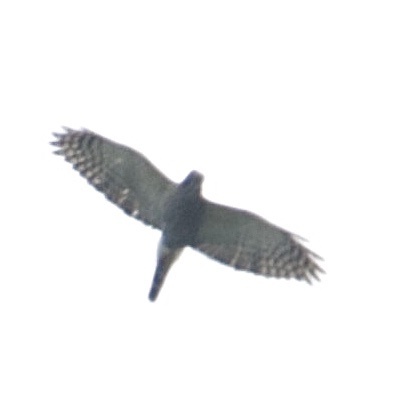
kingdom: Animalia
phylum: Chordata
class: Aves
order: Accipitriformes
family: Accipitridae
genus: Harpagus
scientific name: Harpagus bidentatus
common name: Double-toothed kite
